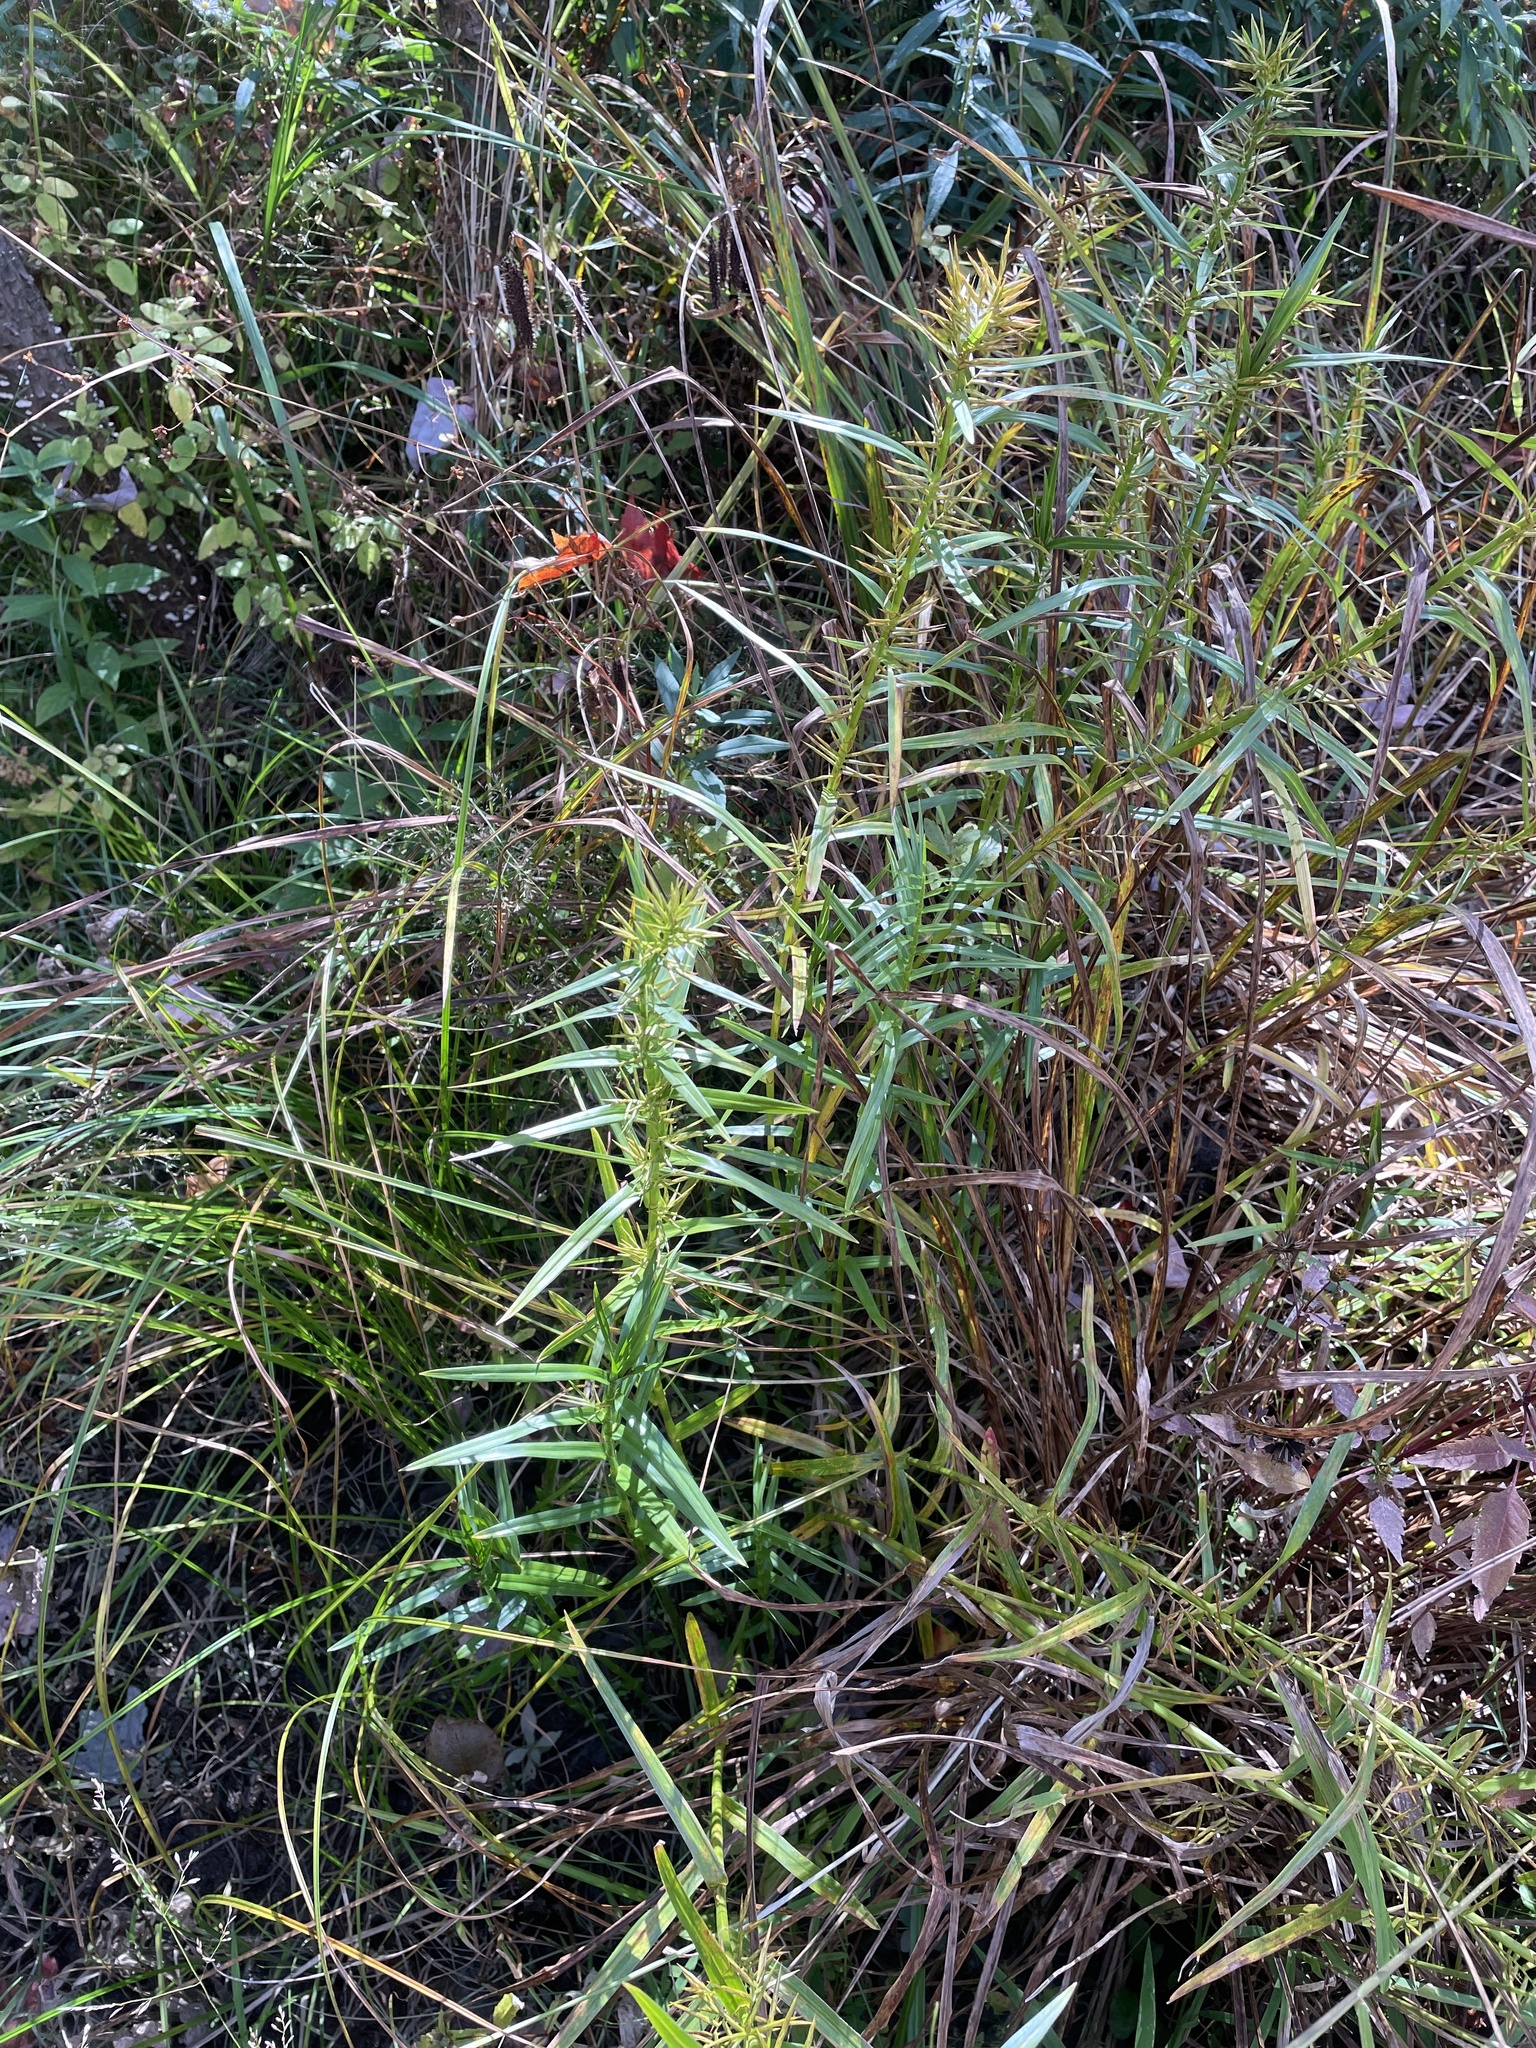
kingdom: Plantae
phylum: Tracheophyta
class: Liliopsida
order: Poales
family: Cyperaceae
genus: Dulichium
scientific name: Dulichium arundinaceum
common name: Three-way sedge
